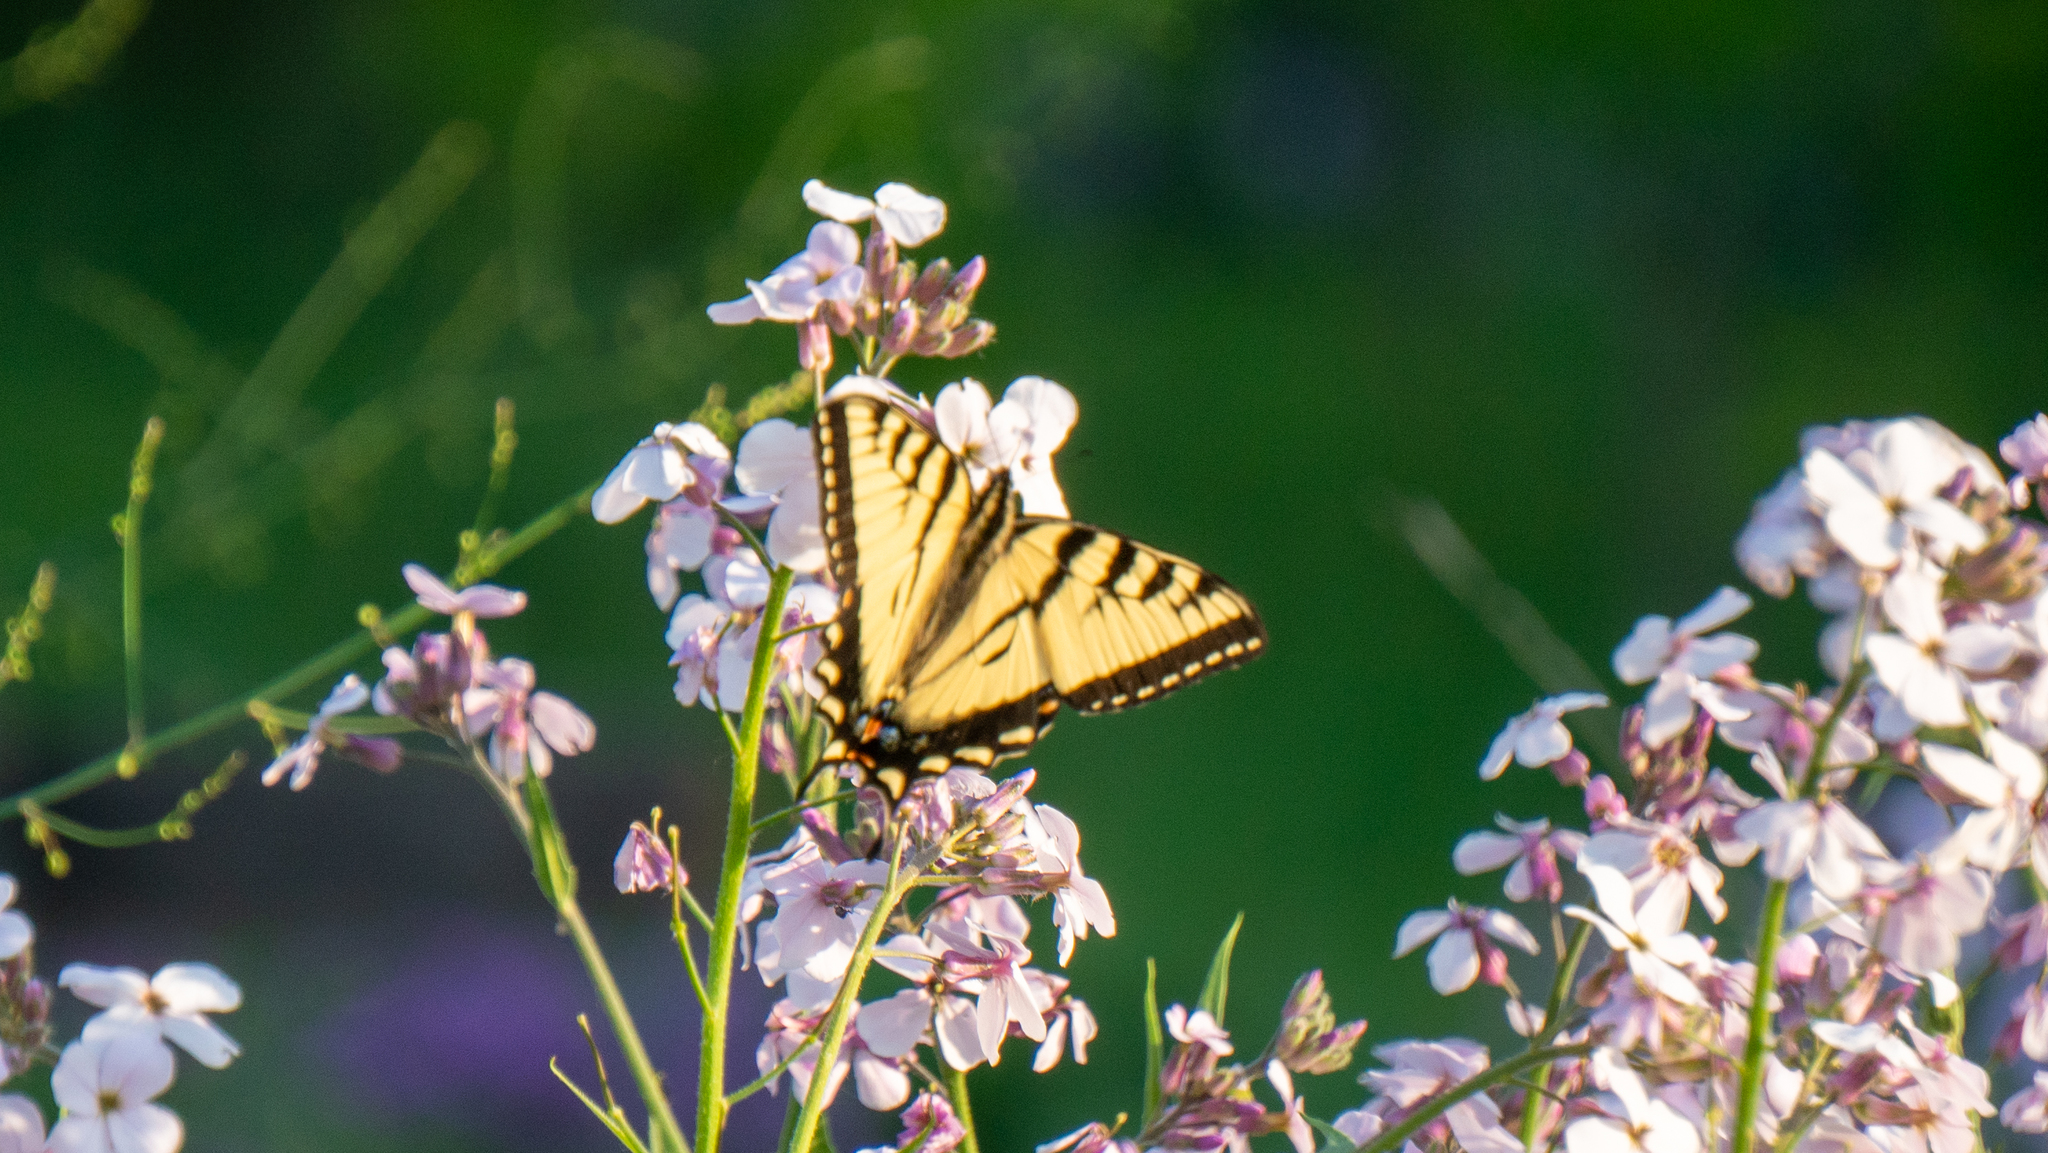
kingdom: Animalia
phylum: Arthropoda
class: Insecta
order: Lepidoptera
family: Papilionidae
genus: Papilio
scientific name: Papilio canadensis
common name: Canadian tiger swallowtail
